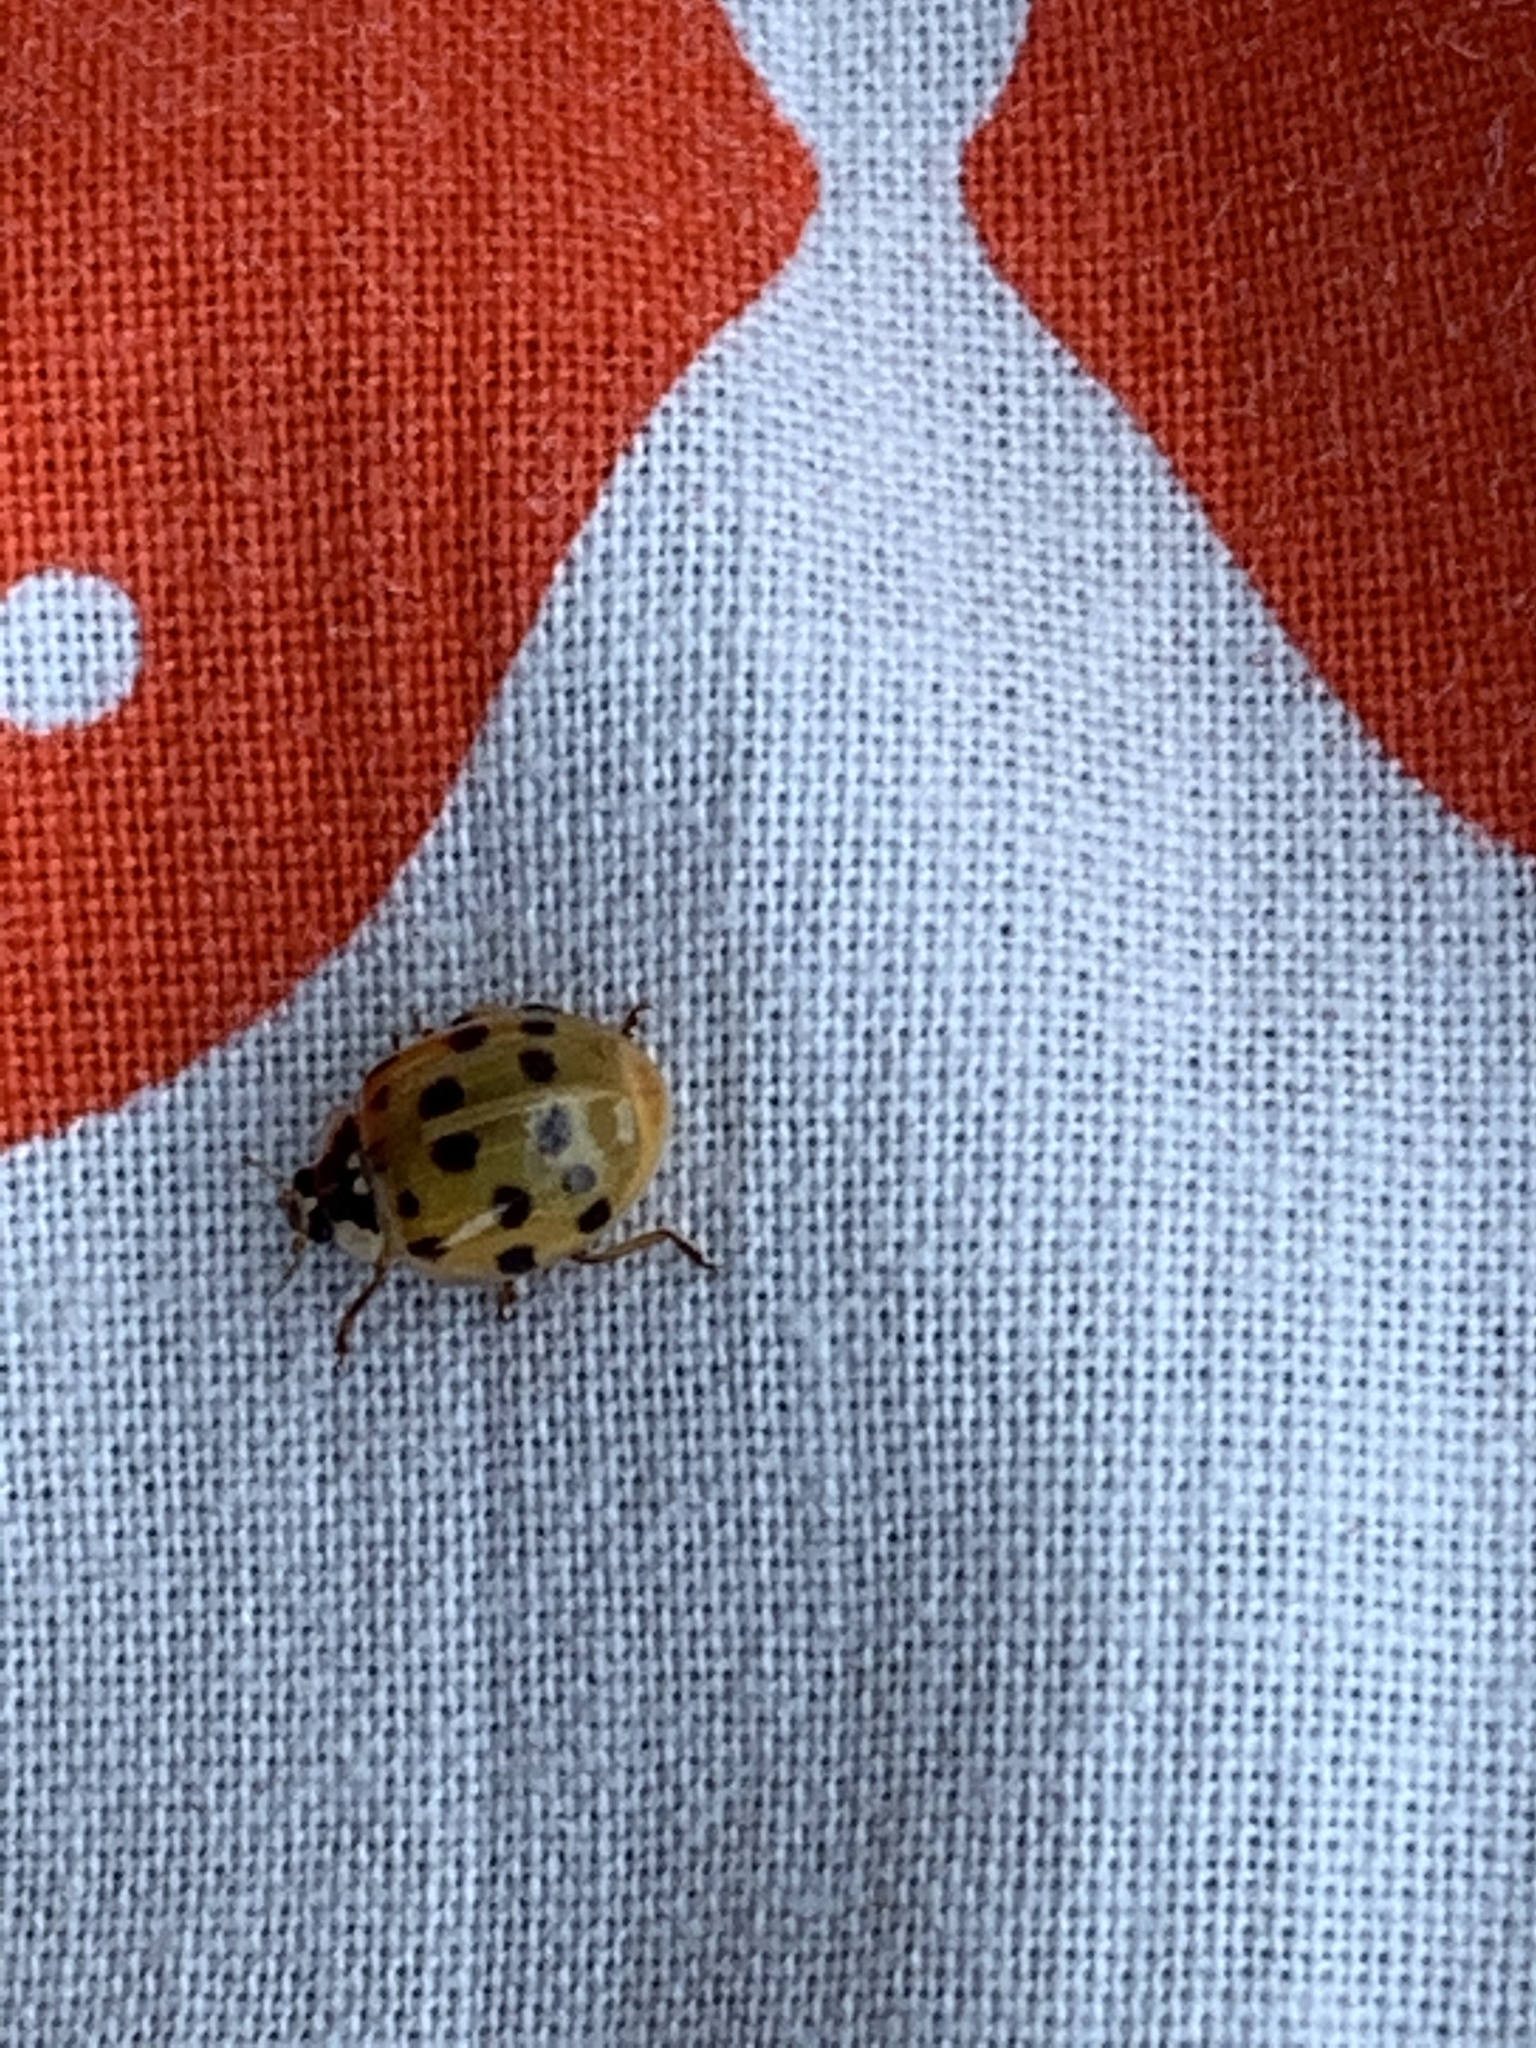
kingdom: Animalia
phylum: Arthropoda
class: Insecta
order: Coleoptera
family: Coccinellidae
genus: Harmonia
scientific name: Harmonia axyridis
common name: Harlequin ladybird
